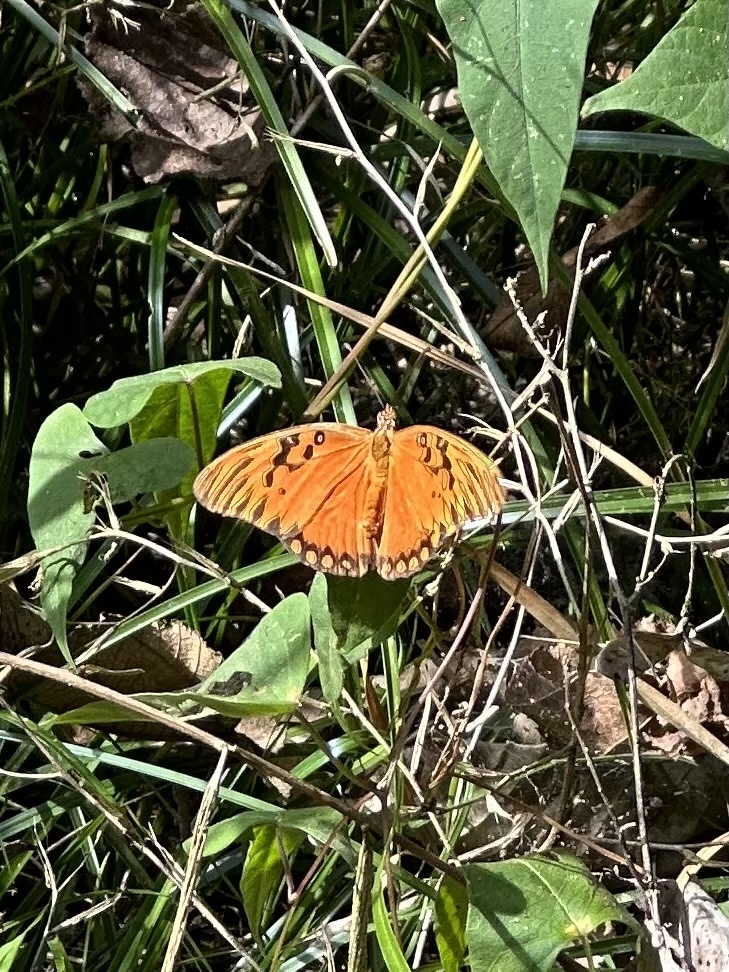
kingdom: Animalia
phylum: Arthropoda
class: Insecta
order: Lepidoptera
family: Nymphalidae
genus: Dione
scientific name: Dione vanillae
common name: Gulf fritillary
